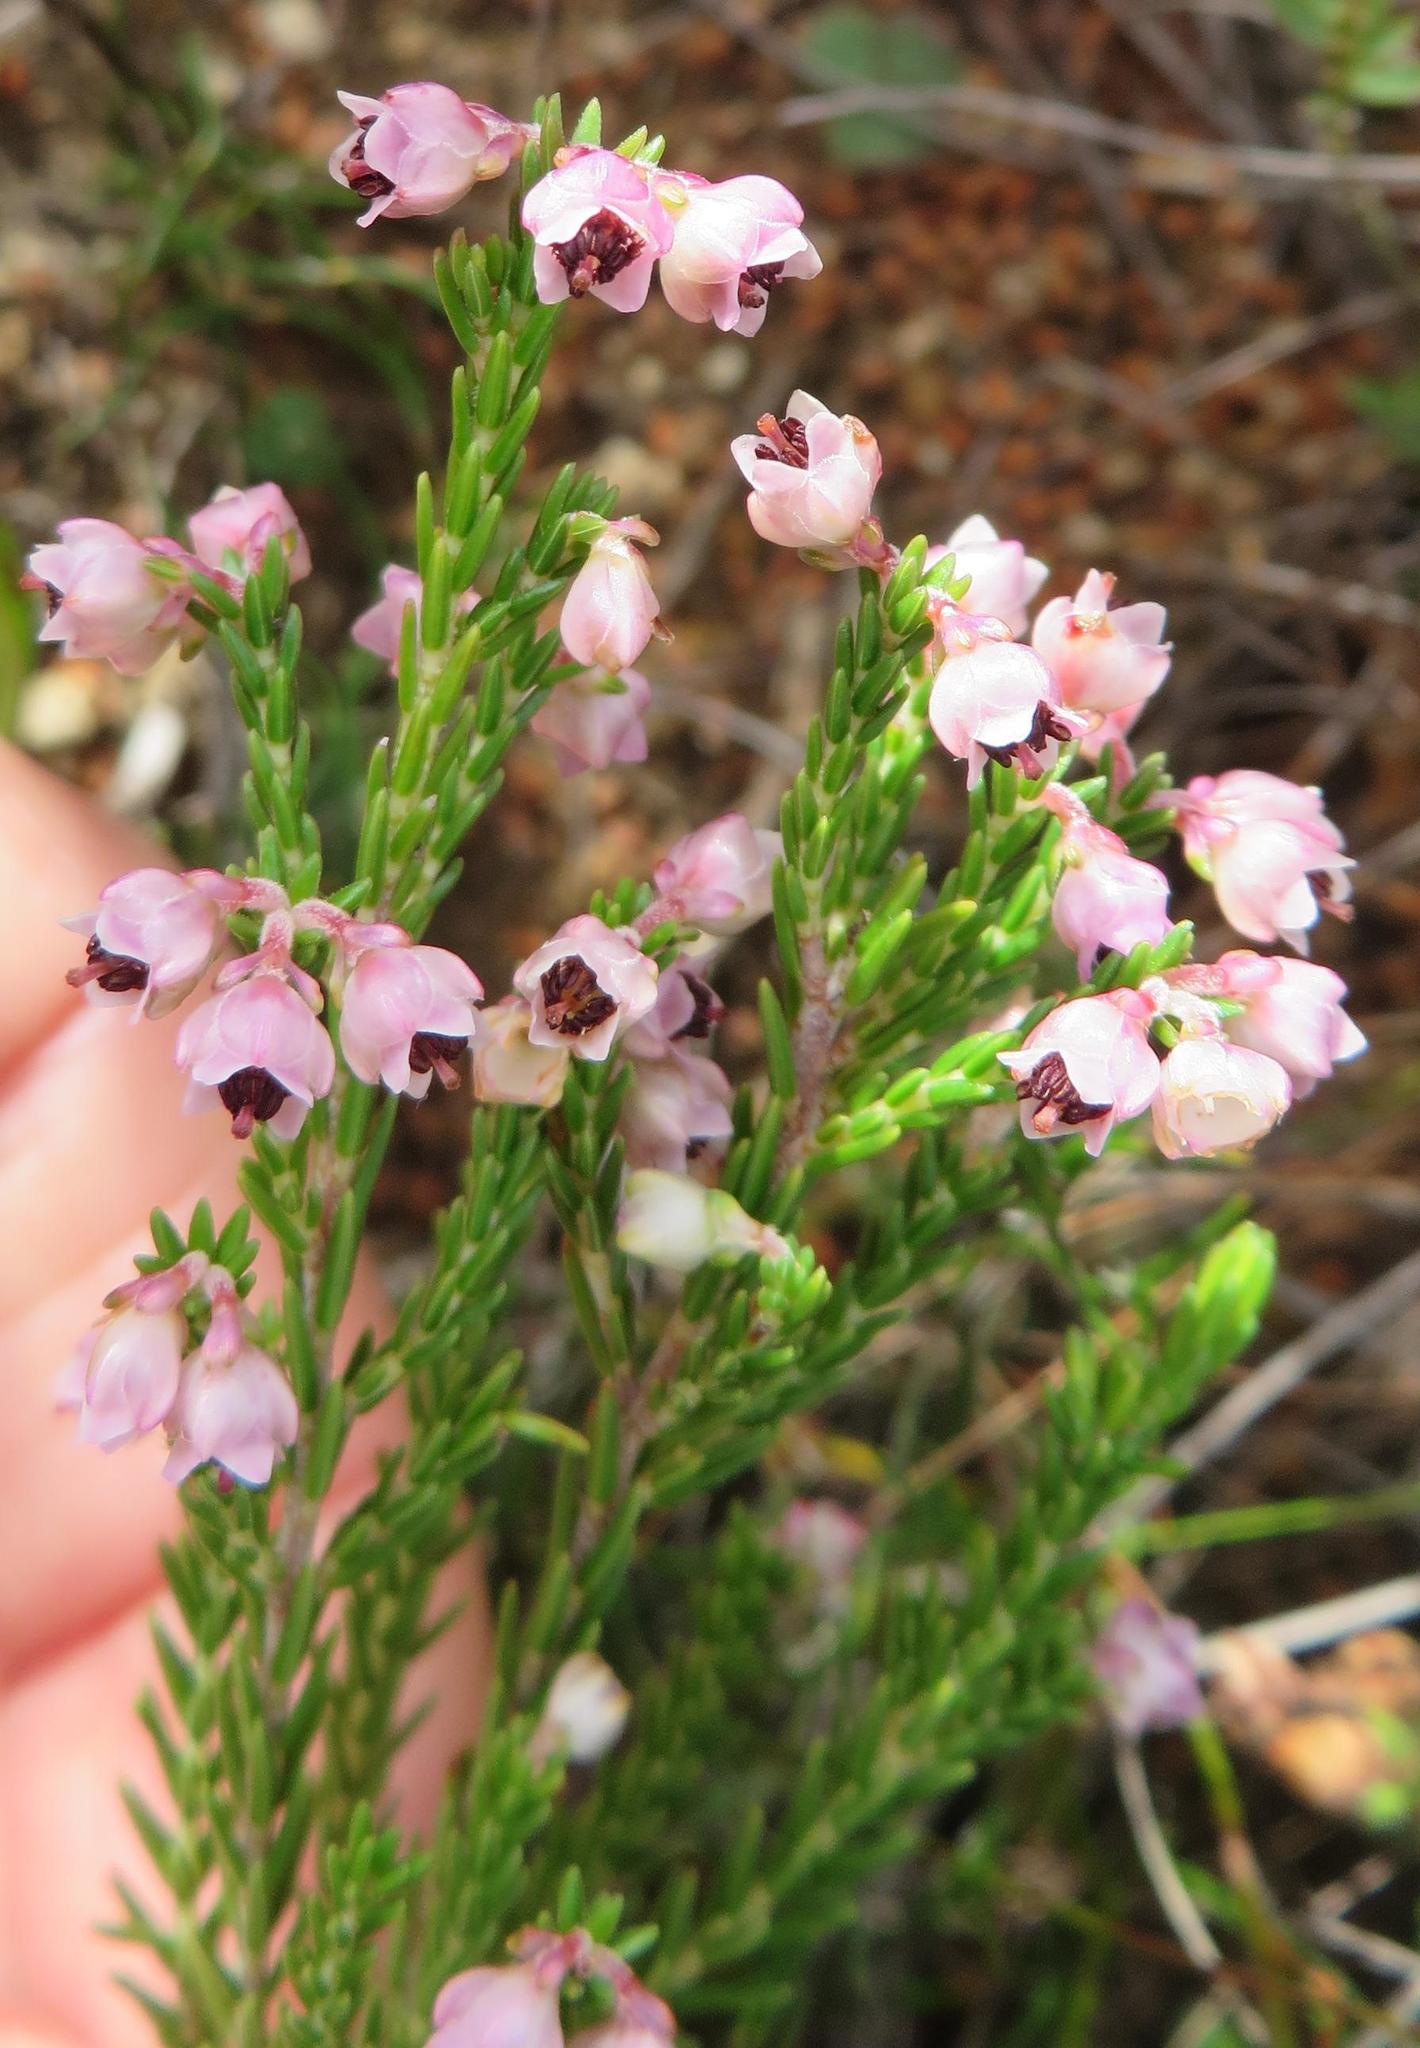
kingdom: Plantae
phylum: Tracheophyta
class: Magnoliopsida
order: Ericales
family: Ericaceae
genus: Erica
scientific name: Erica lucida
